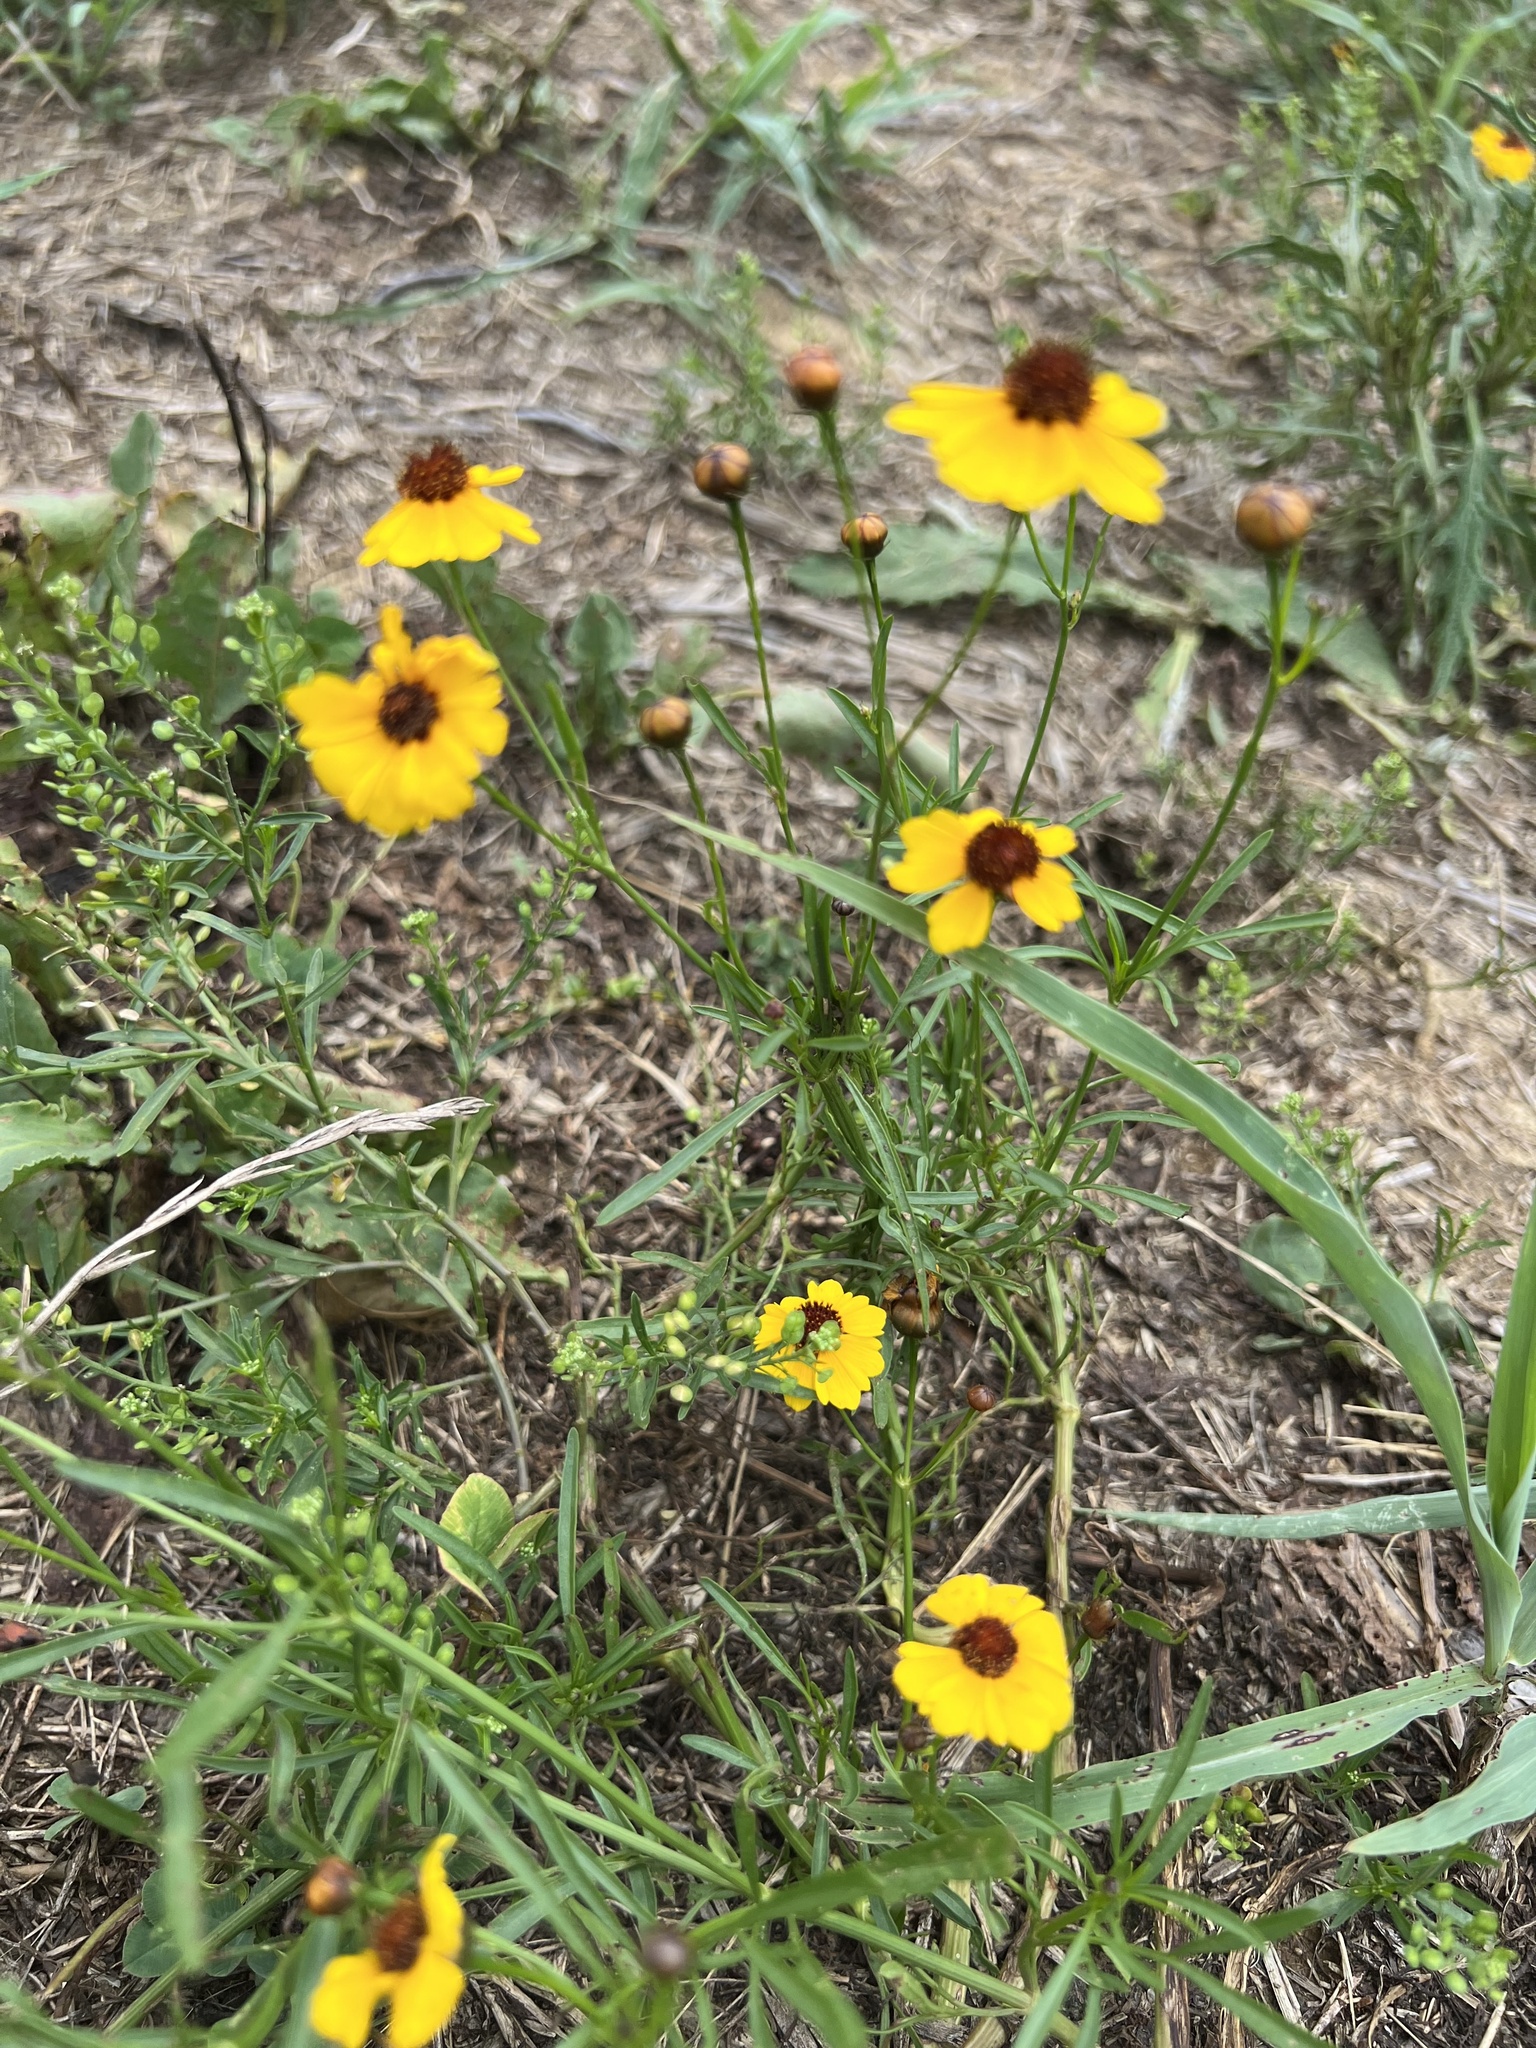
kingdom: Plantae
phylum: Tracheophyta
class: Magnoliopsida
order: Asterales
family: Asteraceae
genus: Coreopsis
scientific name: Coreopsis tinctoria
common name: Garden tickseed
